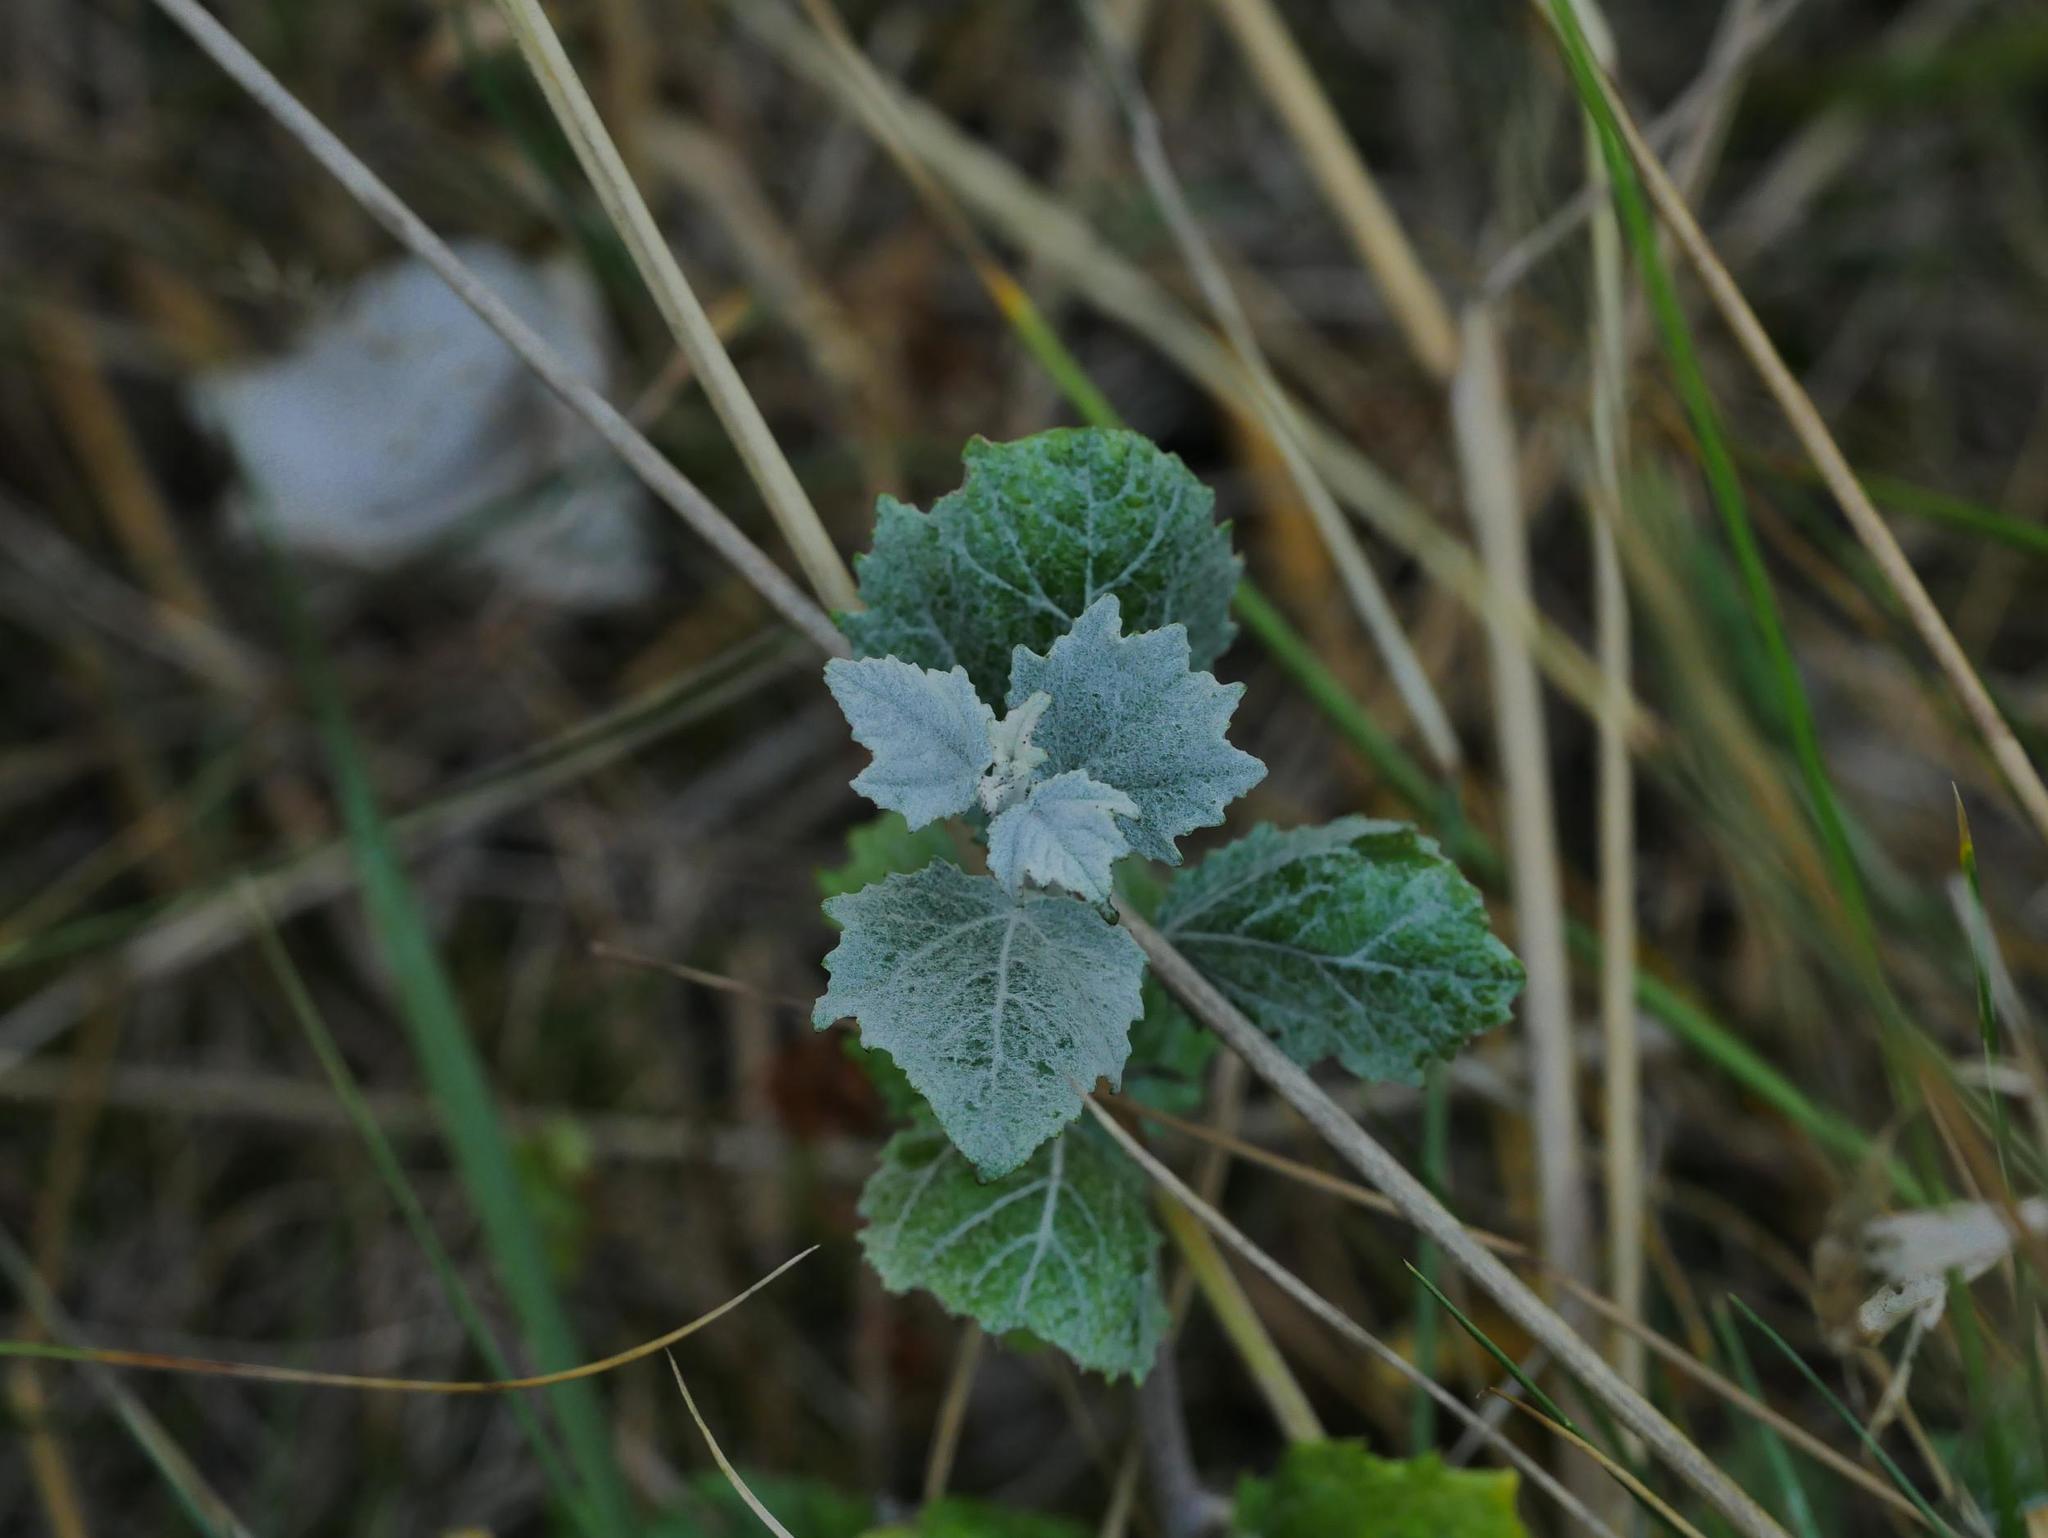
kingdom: Plantae
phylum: Tracheophyta
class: Magnoliopsida
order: Malpighiales
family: Salicaceae
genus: Populus
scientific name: Populus alba
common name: White poplar
